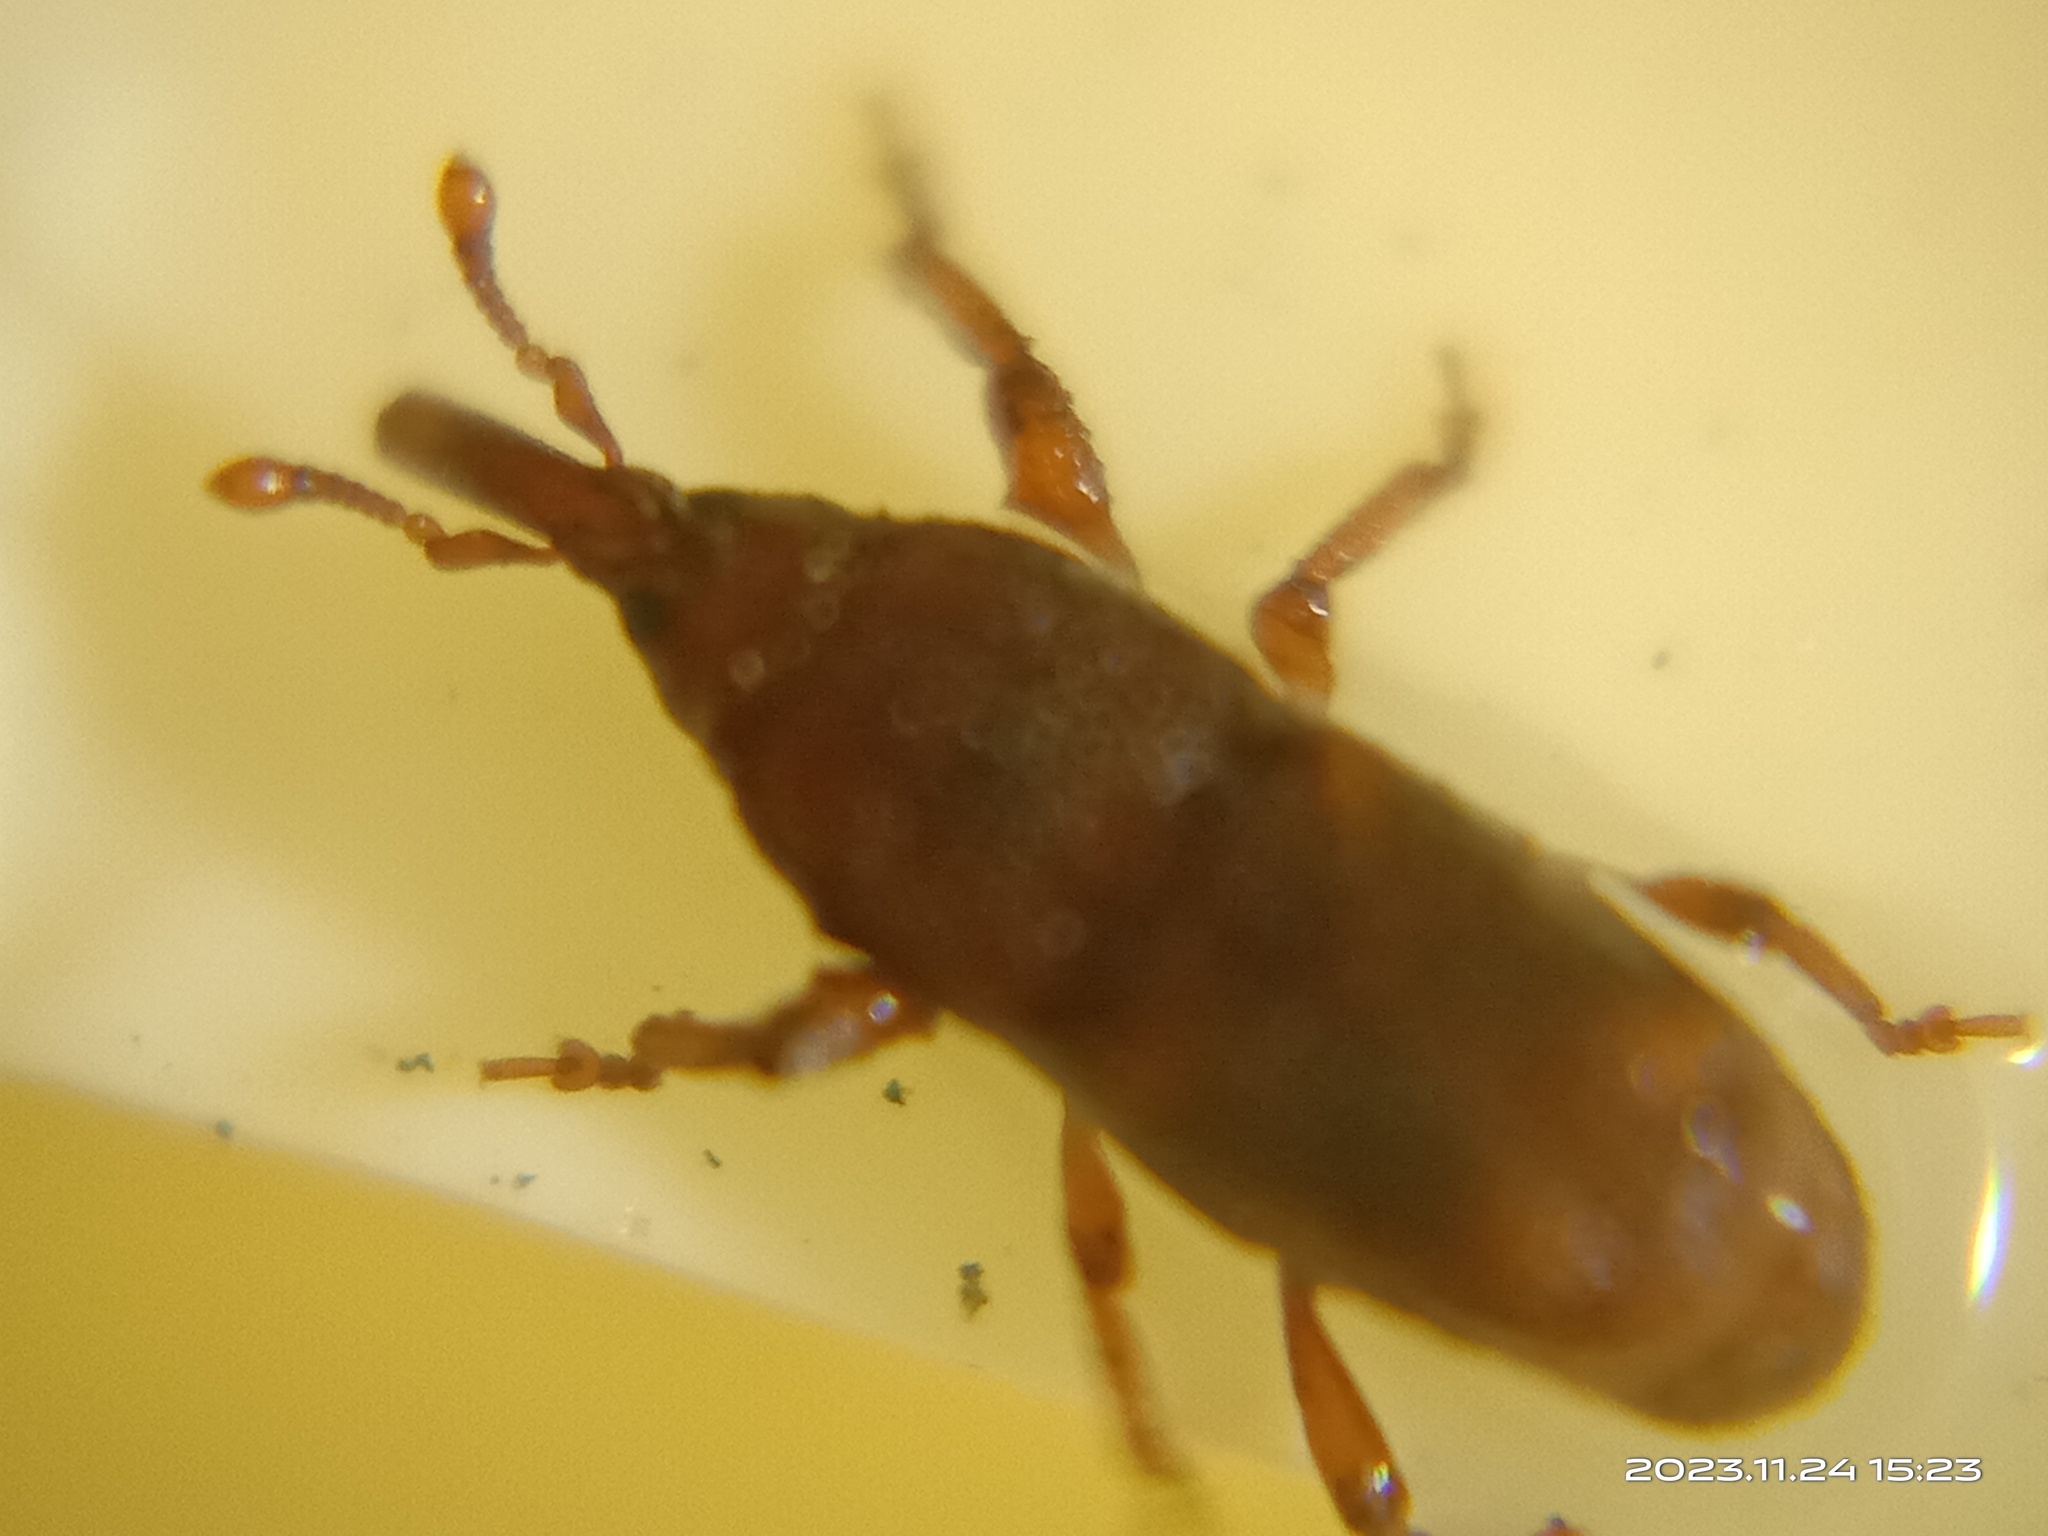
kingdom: Animalia
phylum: Arthropoda
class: Insecta
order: Coleoptera
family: Dryophthoridae
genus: Sitophilus
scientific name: Sitophilus oryzae
